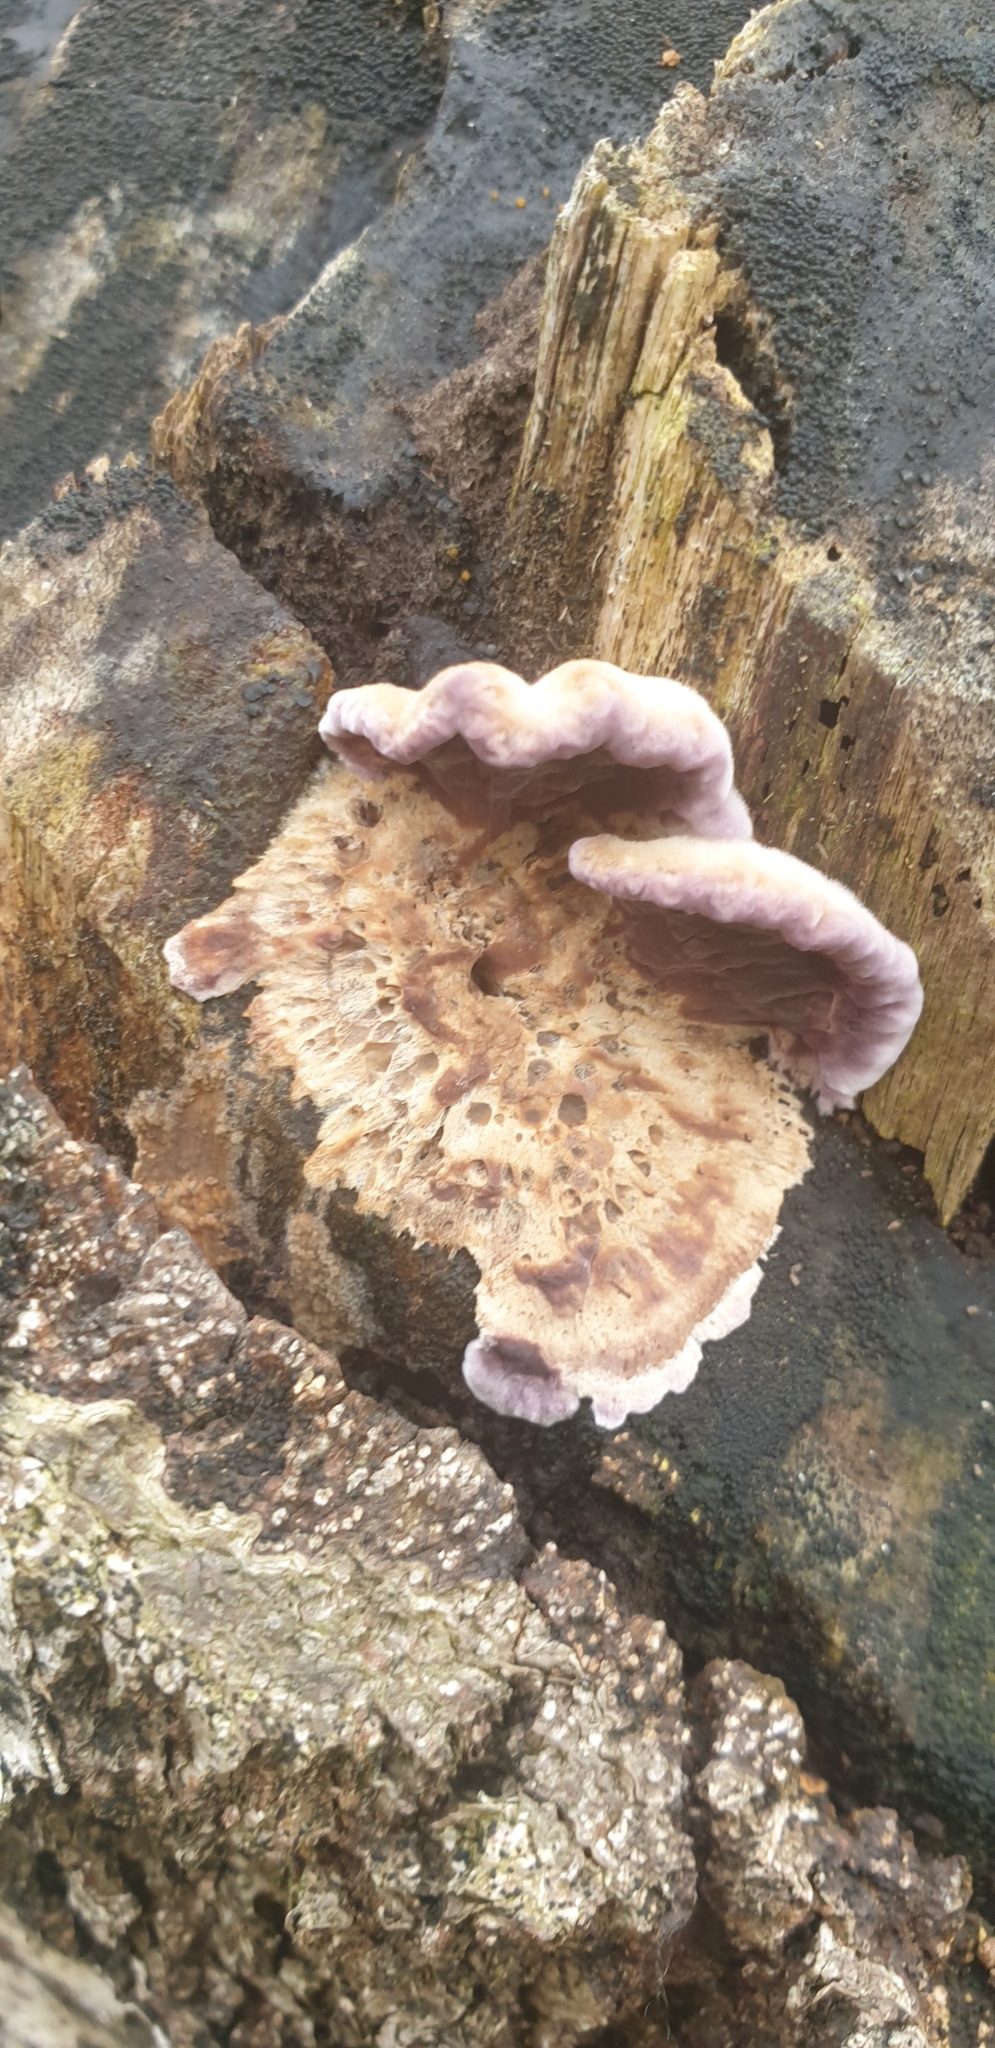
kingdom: Fungi
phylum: Basidiomycota
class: Agaricomycetes
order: Agaricales
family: Cyphellaceae
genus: Chondrostereum
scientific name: Chondrostereum purpureum
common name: Silver leaf disease
